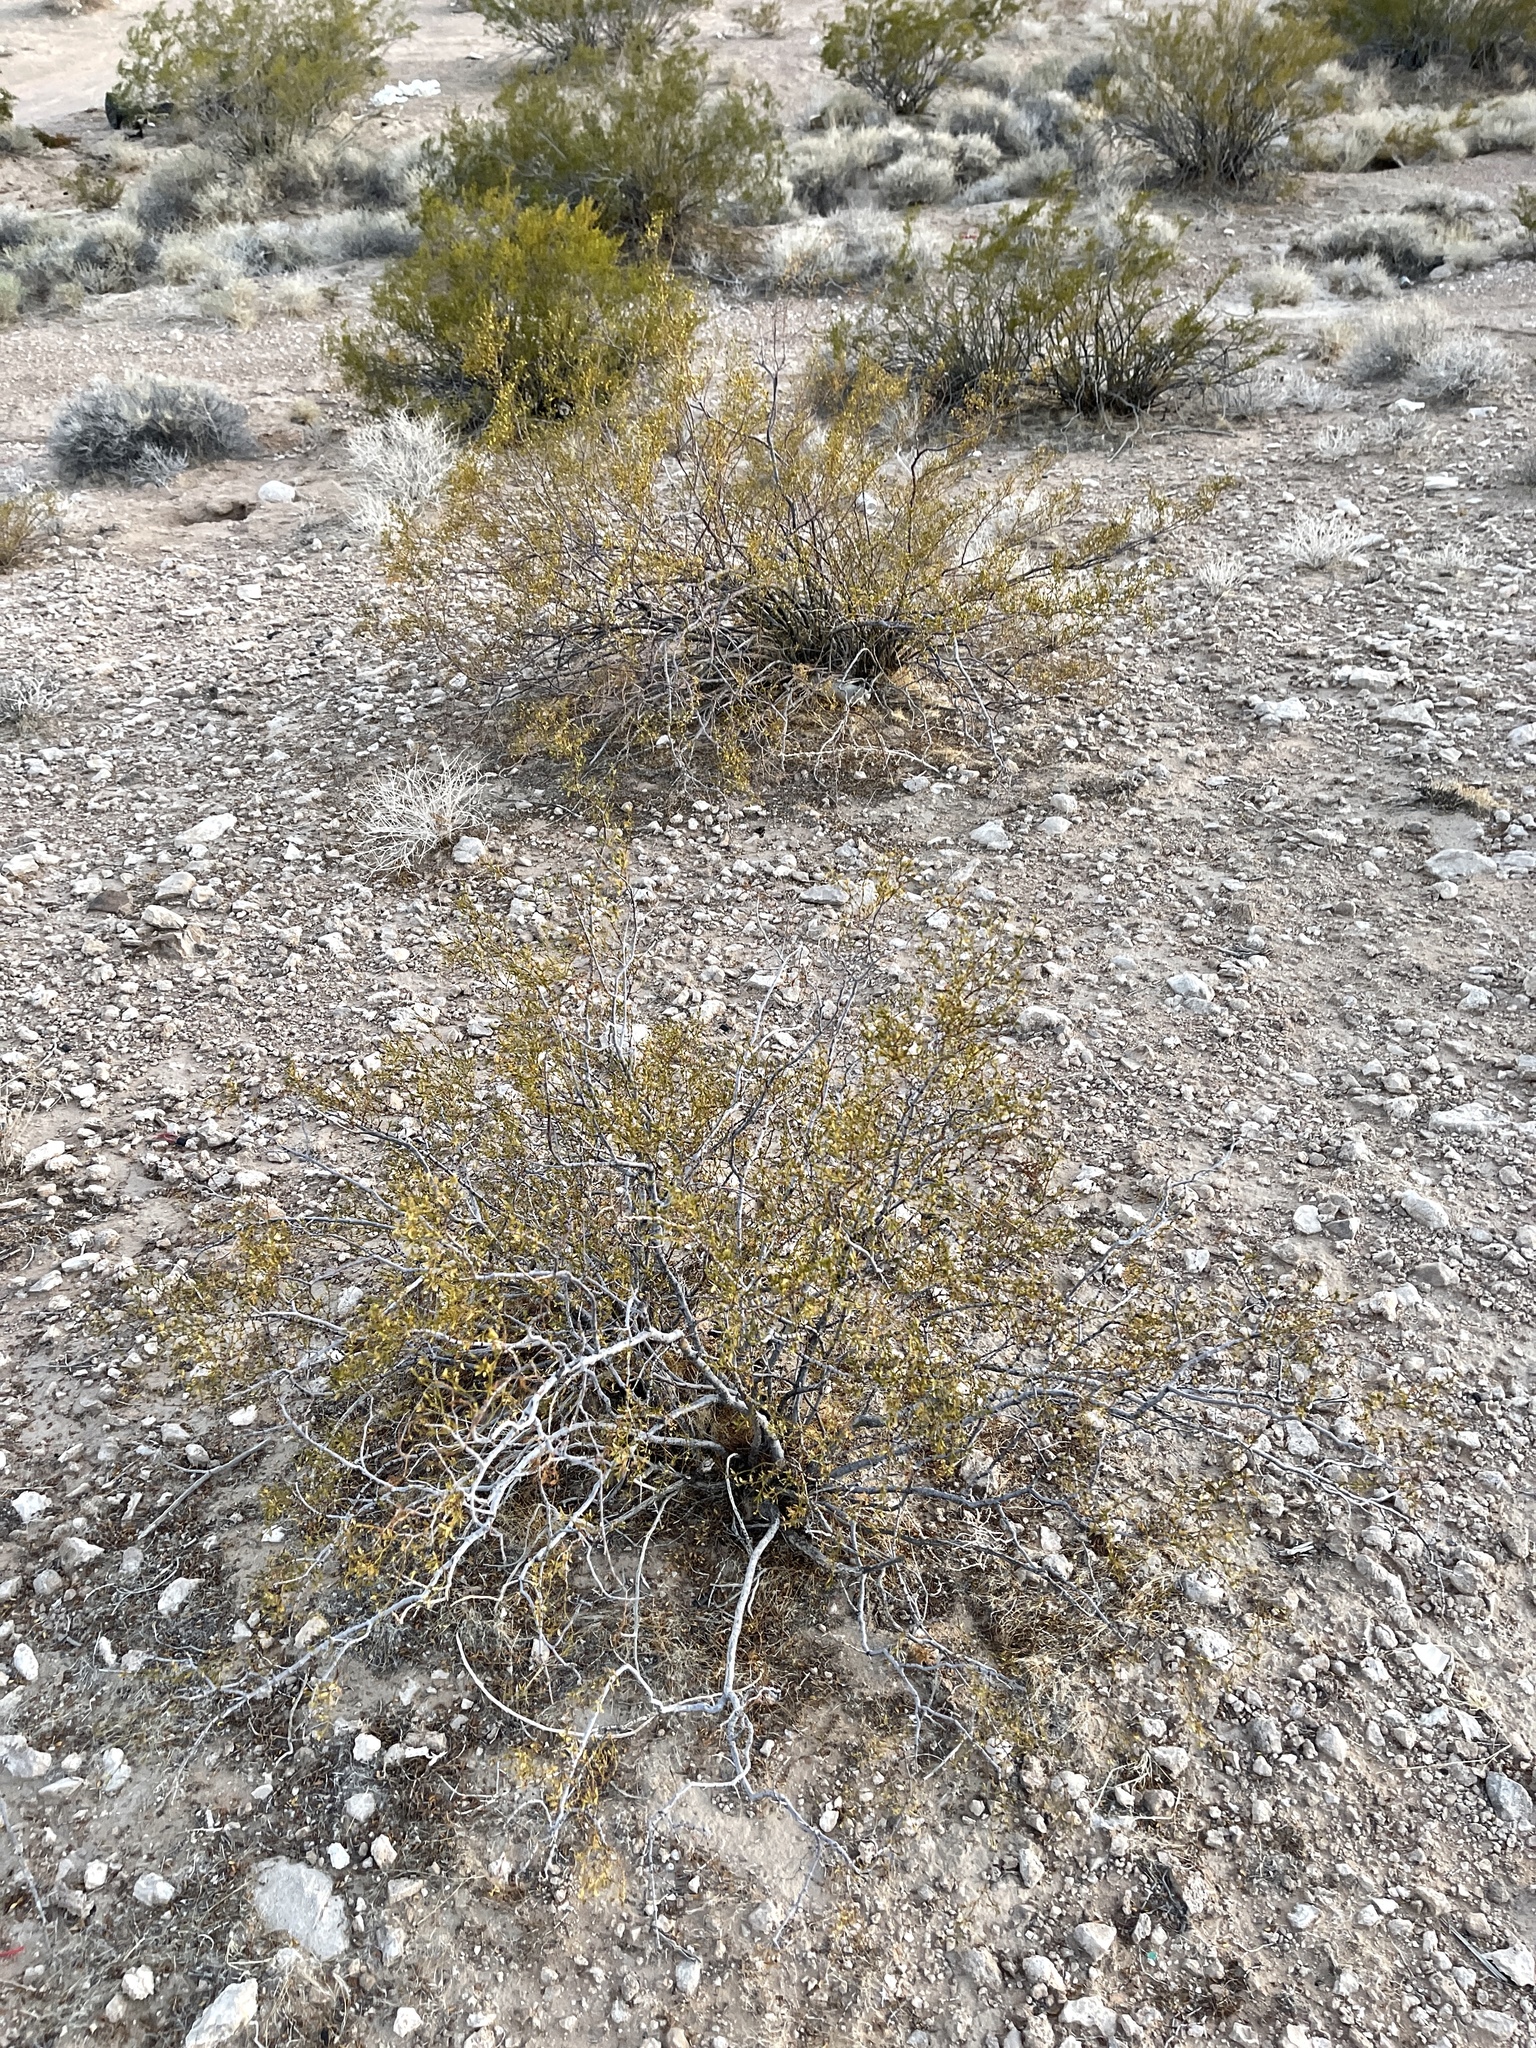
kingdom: Plantae
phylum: Tracheophyta
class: Magnoliopsida
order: Zygophyllales
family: Zygophyllaceae
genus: Larrea
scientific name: Larrea tridentata
